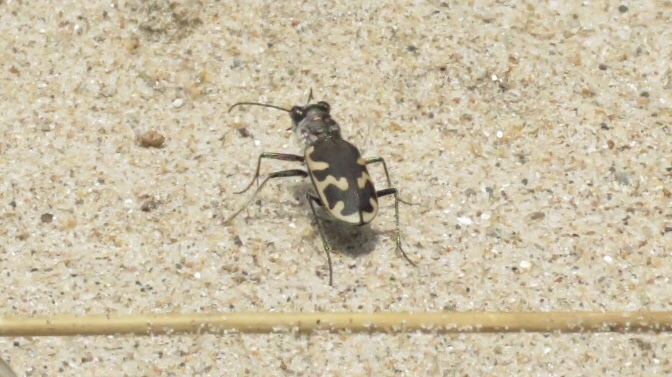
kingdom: Animalia
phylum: Arthropoda
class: Insecta
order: Coleoptera
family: Carabidae
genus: Cicindela
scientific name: Cicindela formosa
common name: Big sand tiger beetle
